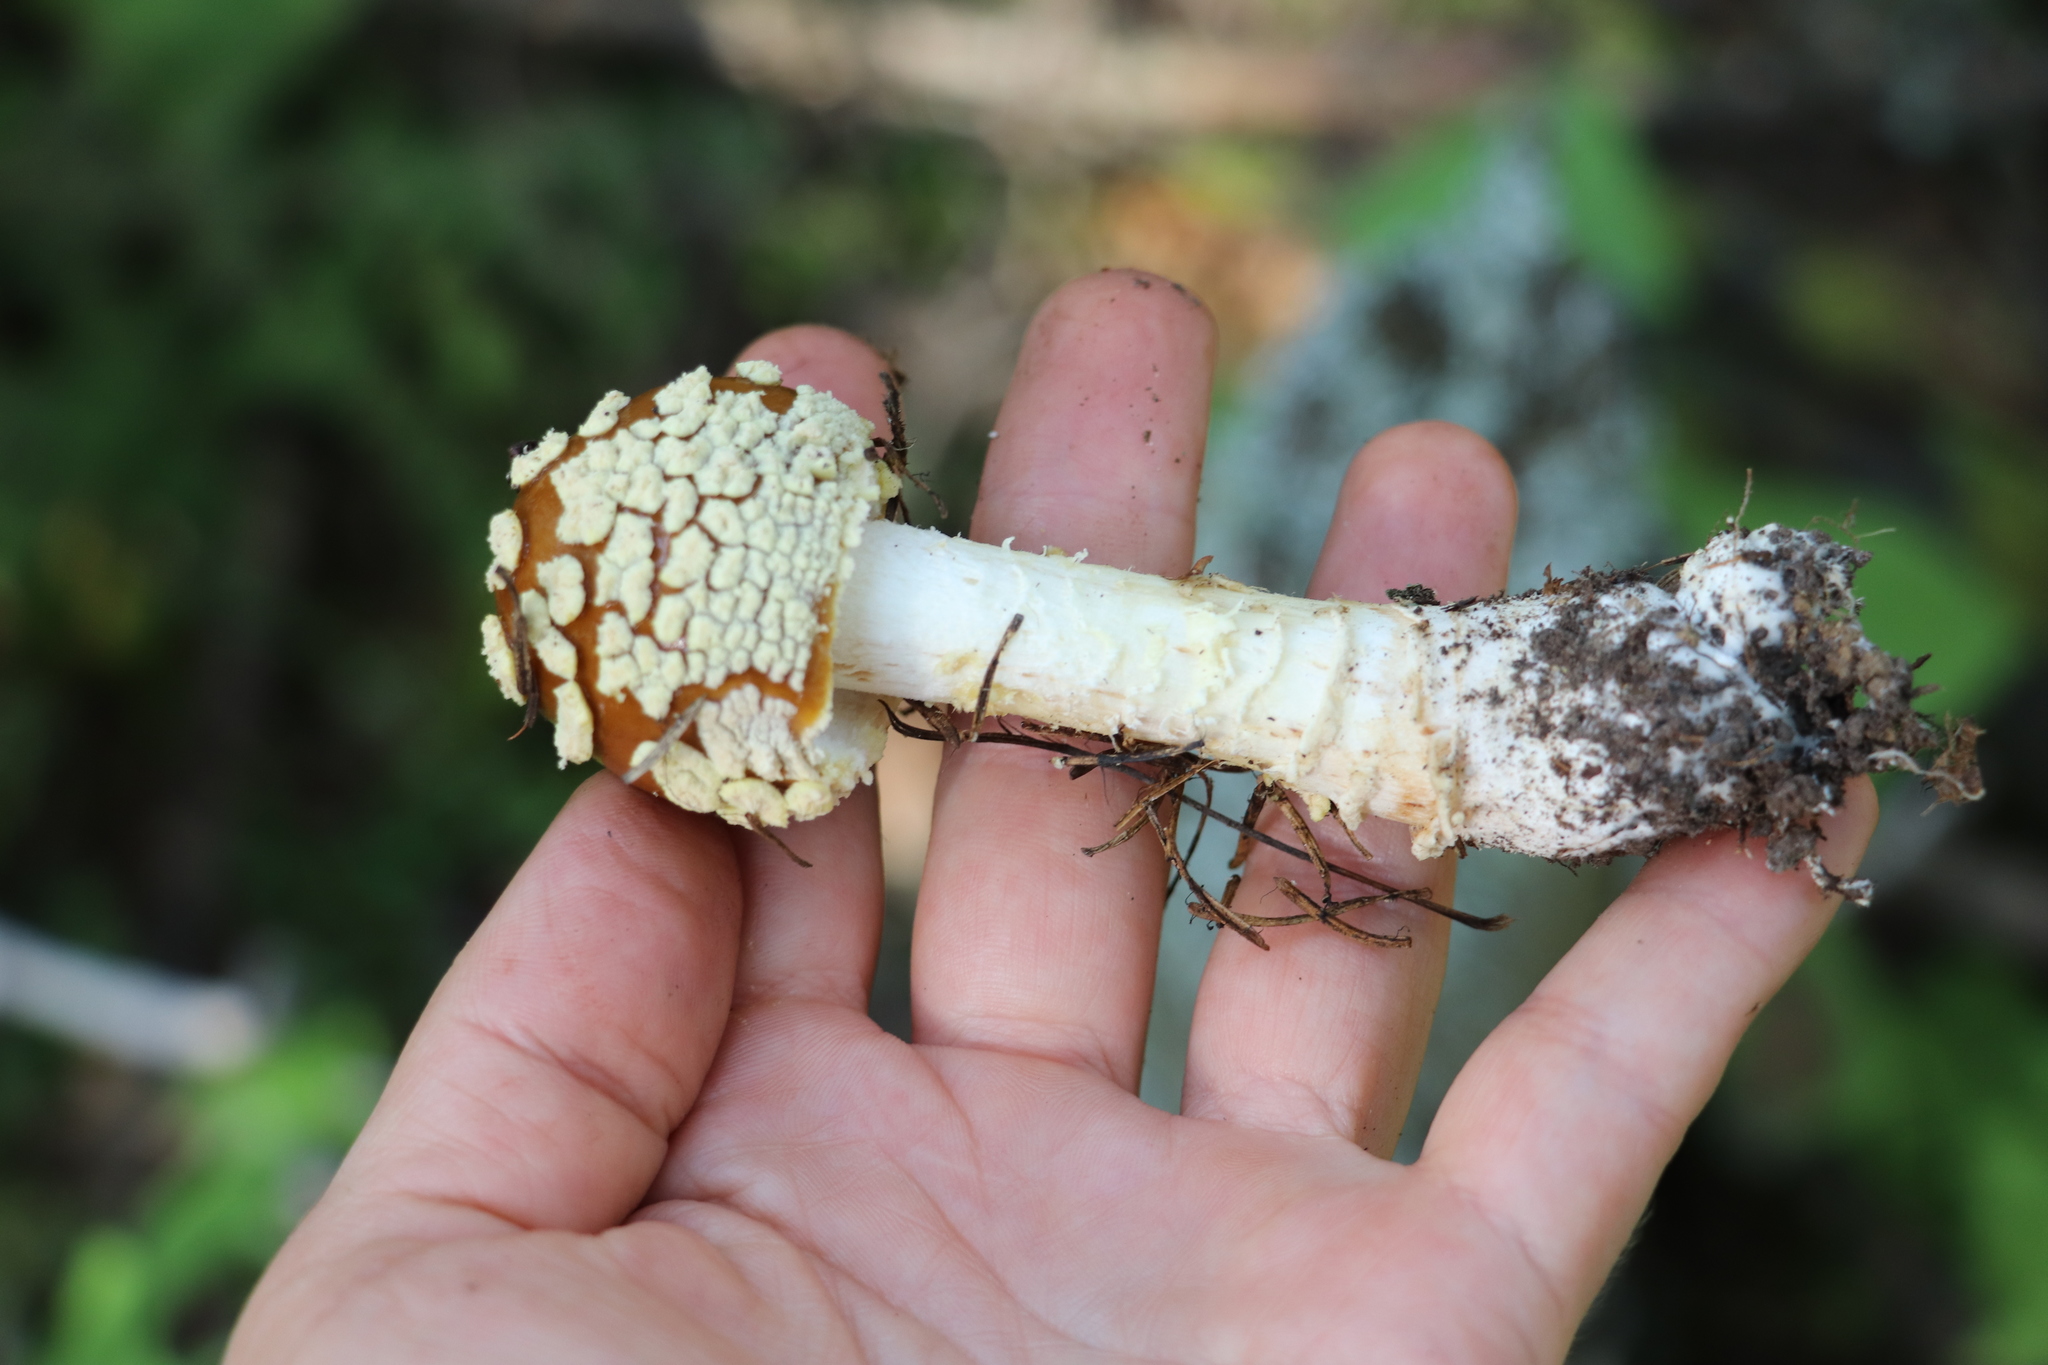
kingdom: Fungi
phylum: Basidiomycota
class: Agaricomycetes
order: Agaricales
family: Amanitaceae
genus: Amanita
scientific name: Amanita regalis
